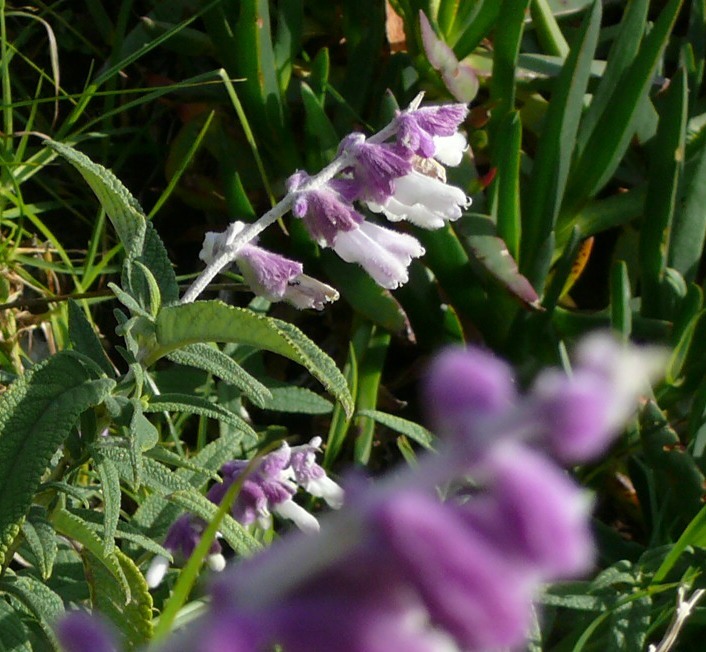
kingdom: Plantae
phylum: Tracheophyta
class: Magnoliopsida
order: Lamiales
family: Lamiaceae
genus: Salvia
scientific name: Salvia leucantha
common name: Mexican bush sage
